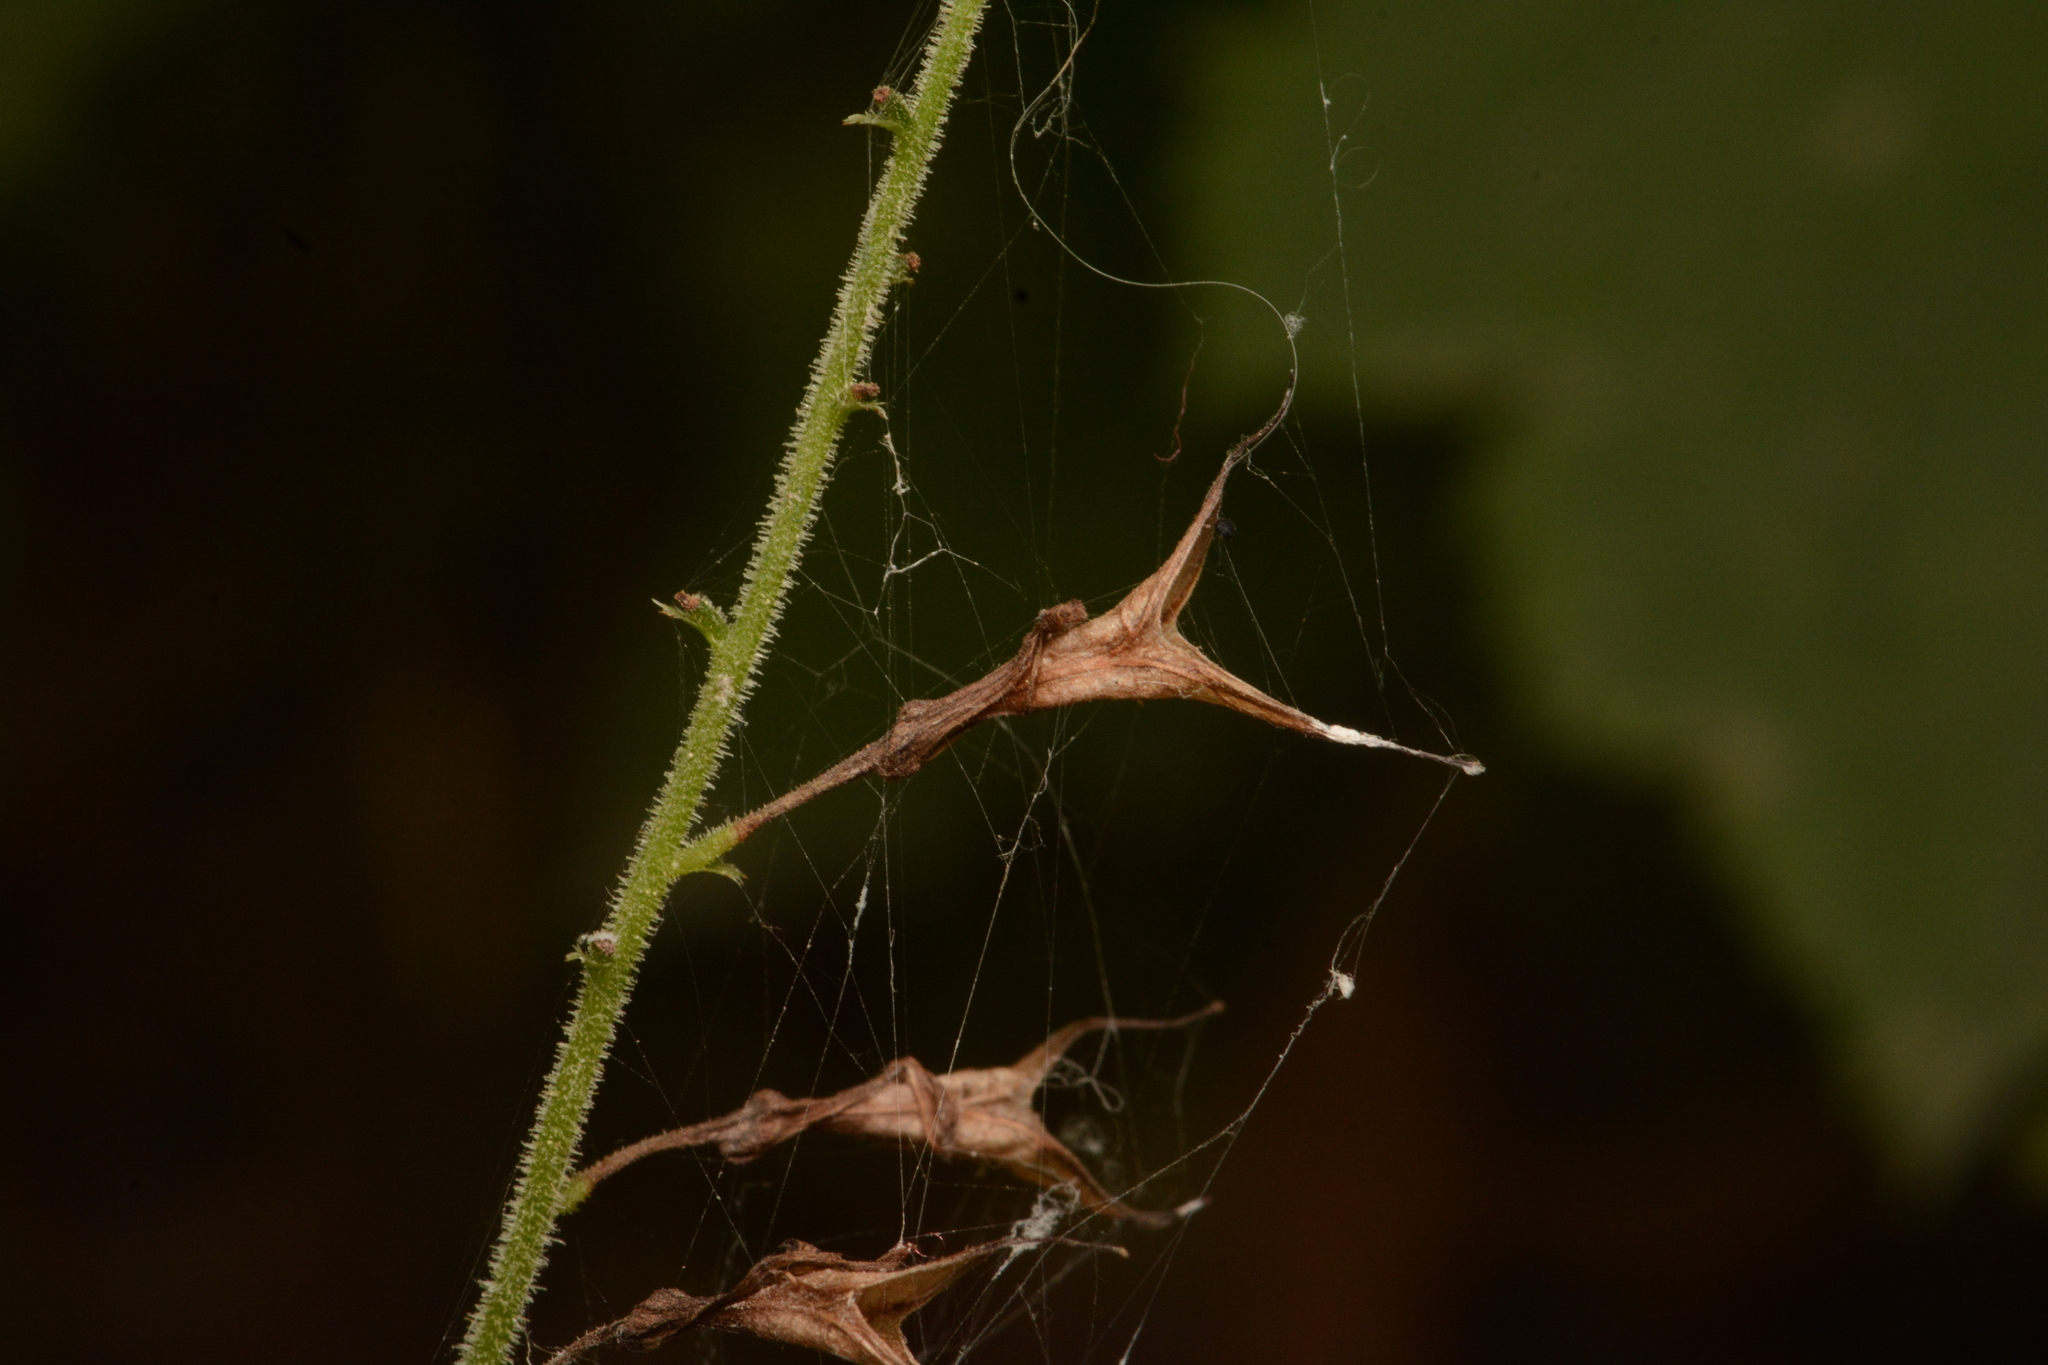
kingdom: Plantae
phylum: Tracheophyta
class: Magnoliopsida
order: Saxifragales
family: Saxifragaceae
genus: Tolmiea
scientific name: Tolmiea menziesii
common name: Pick-a-back-plant
